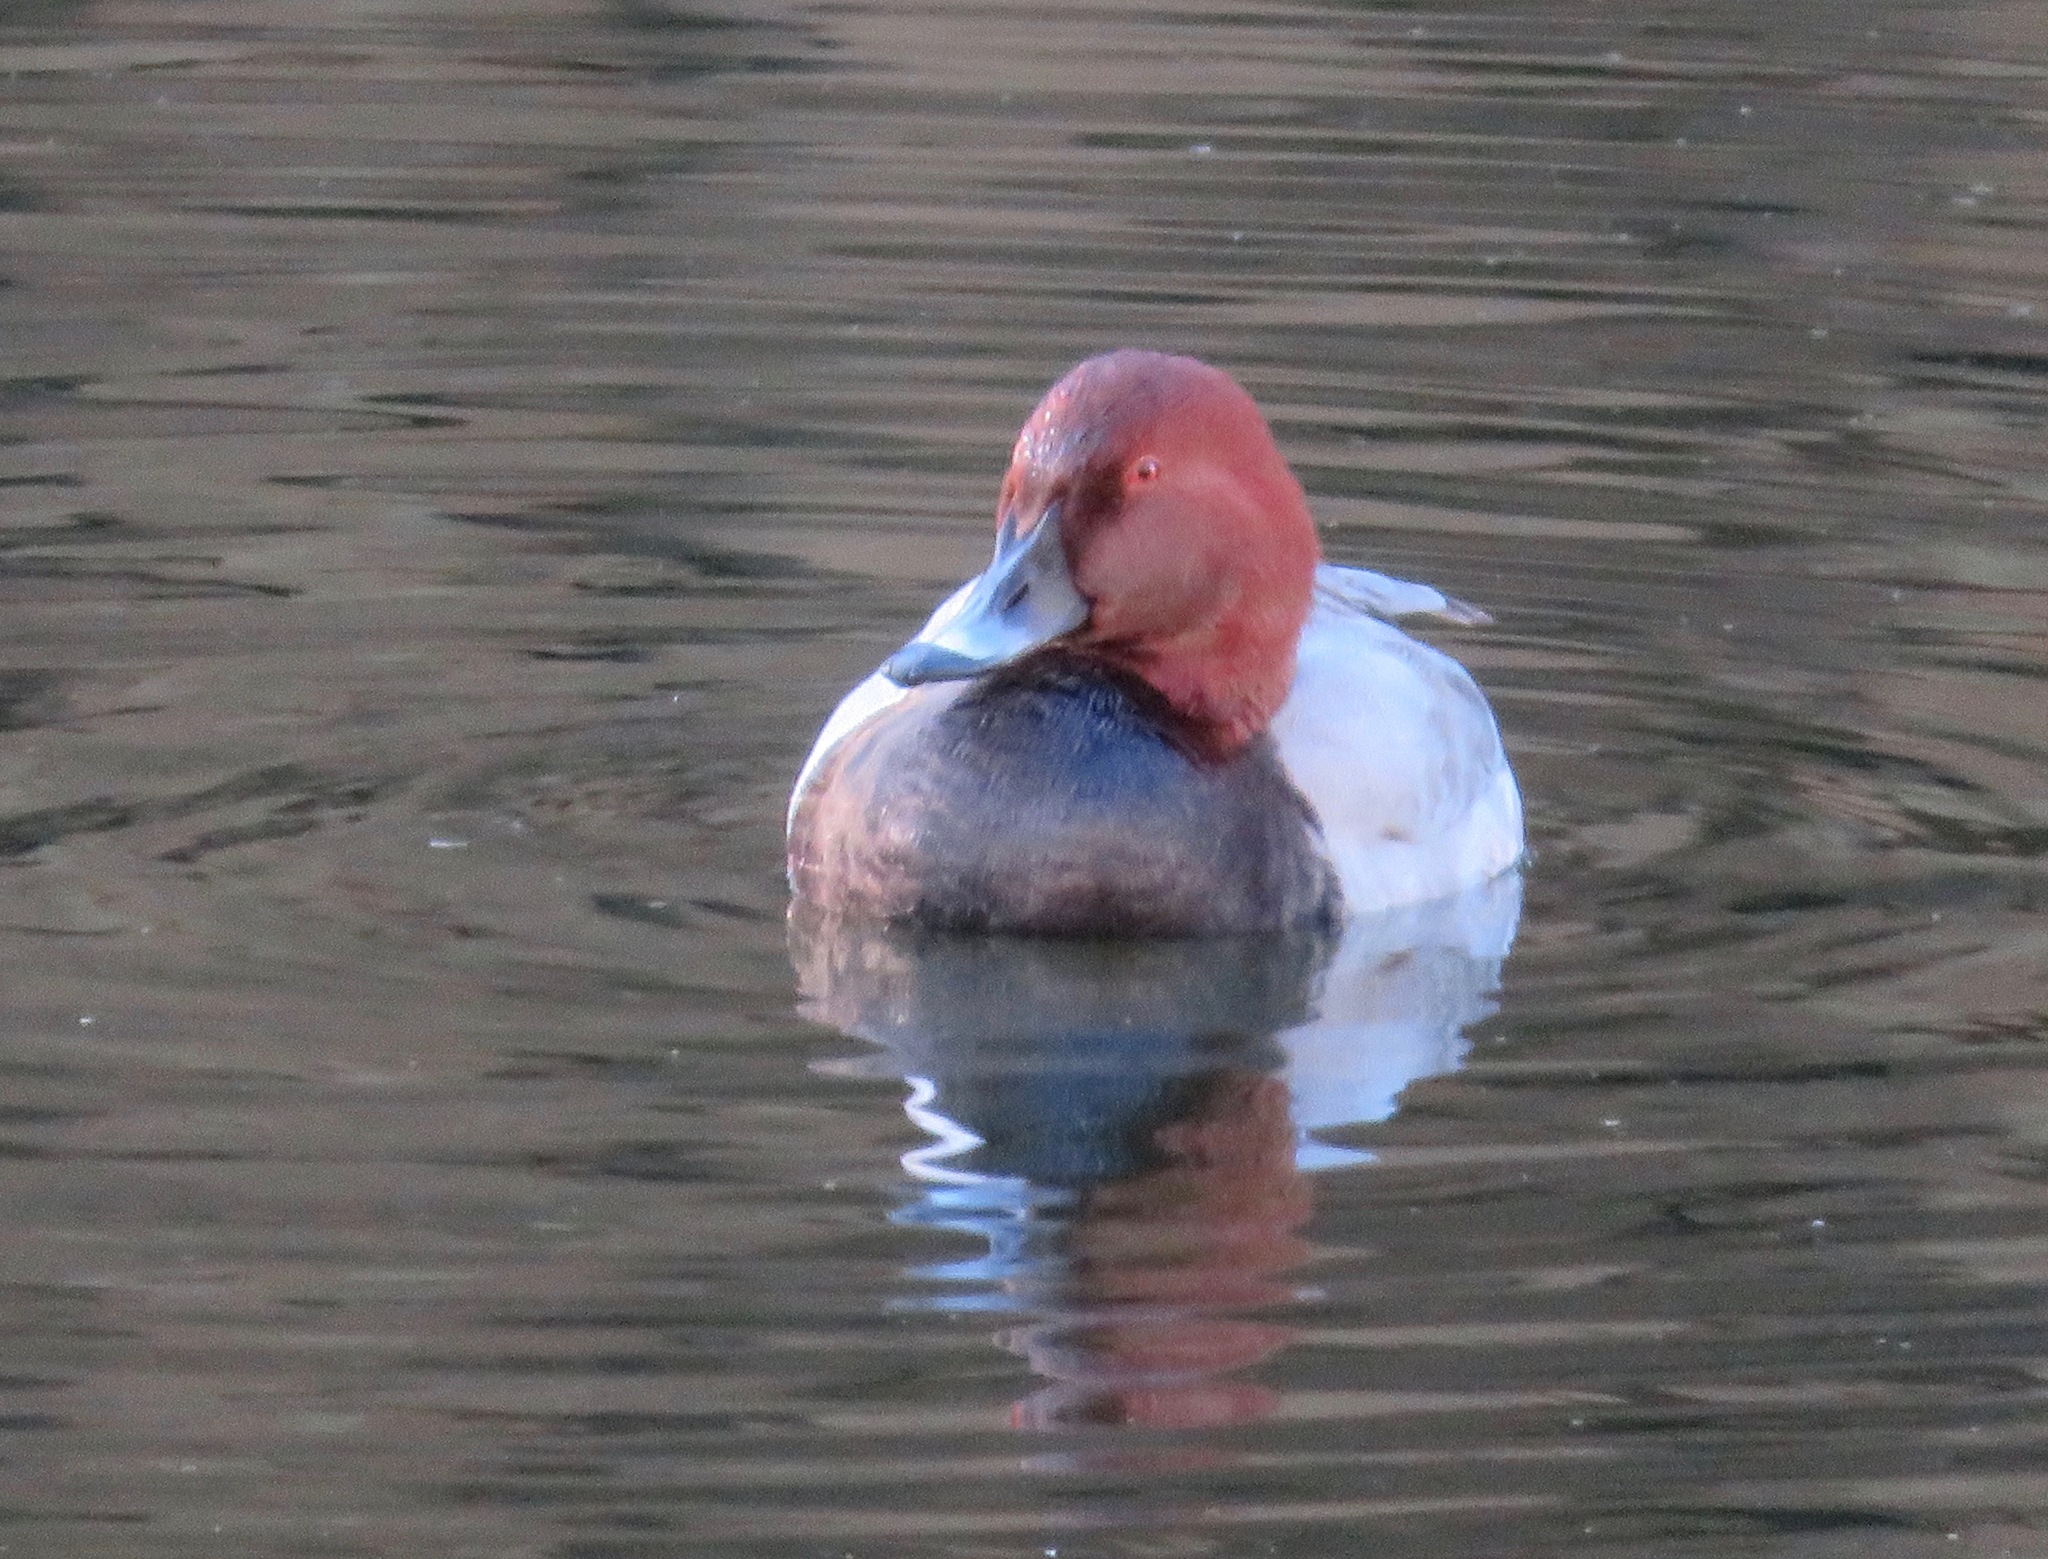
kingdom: Animalia
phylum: Chordata
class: Aves
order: Anseriformes
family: Anatidae
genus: Aythya
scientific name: Aythya ferina
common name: Common pochard
